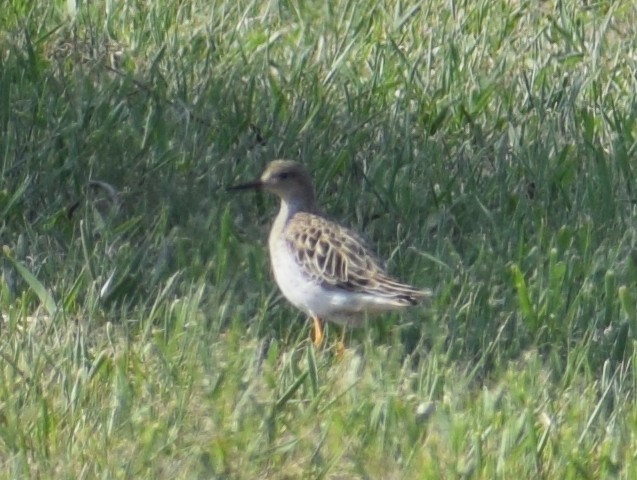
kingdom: Animalia
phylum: Chordata
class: Aves
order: Charadriiformes
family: Scolopacidae
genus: Calidris
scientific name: Calidris pugnax
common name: Ruff
